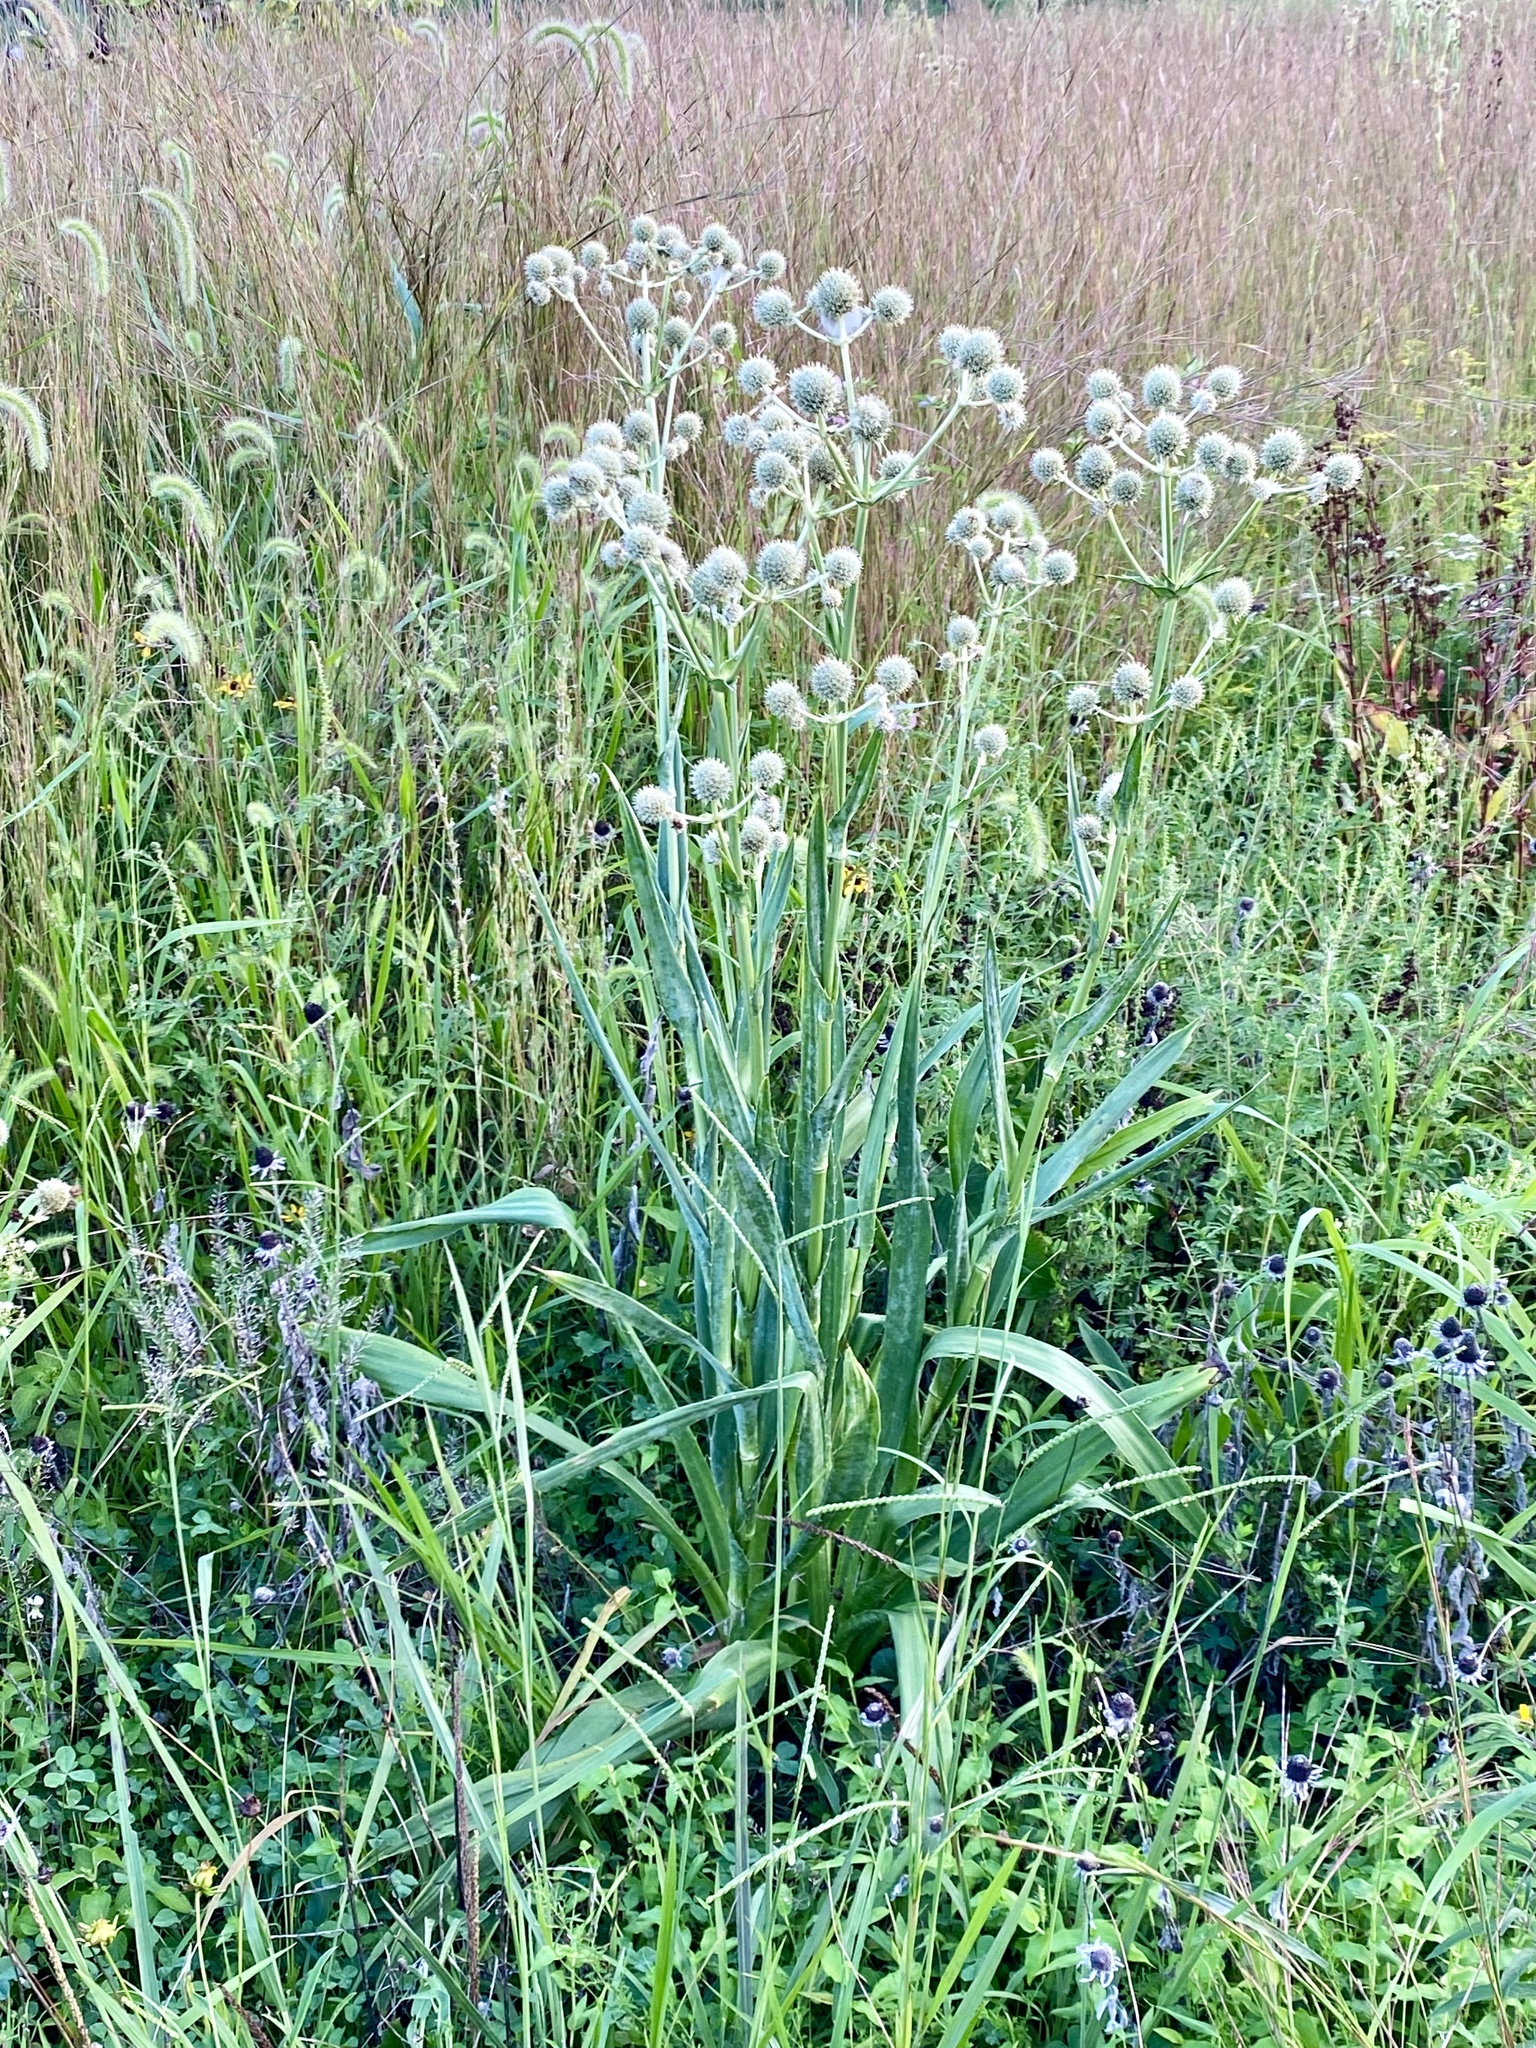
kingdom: Plantae
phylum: Tracheophyta
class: Magnoliopsida
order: Apiales
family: Apiaceae
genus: Eryngium
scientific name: Eryngium yuccifolium
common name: Button eryngo
